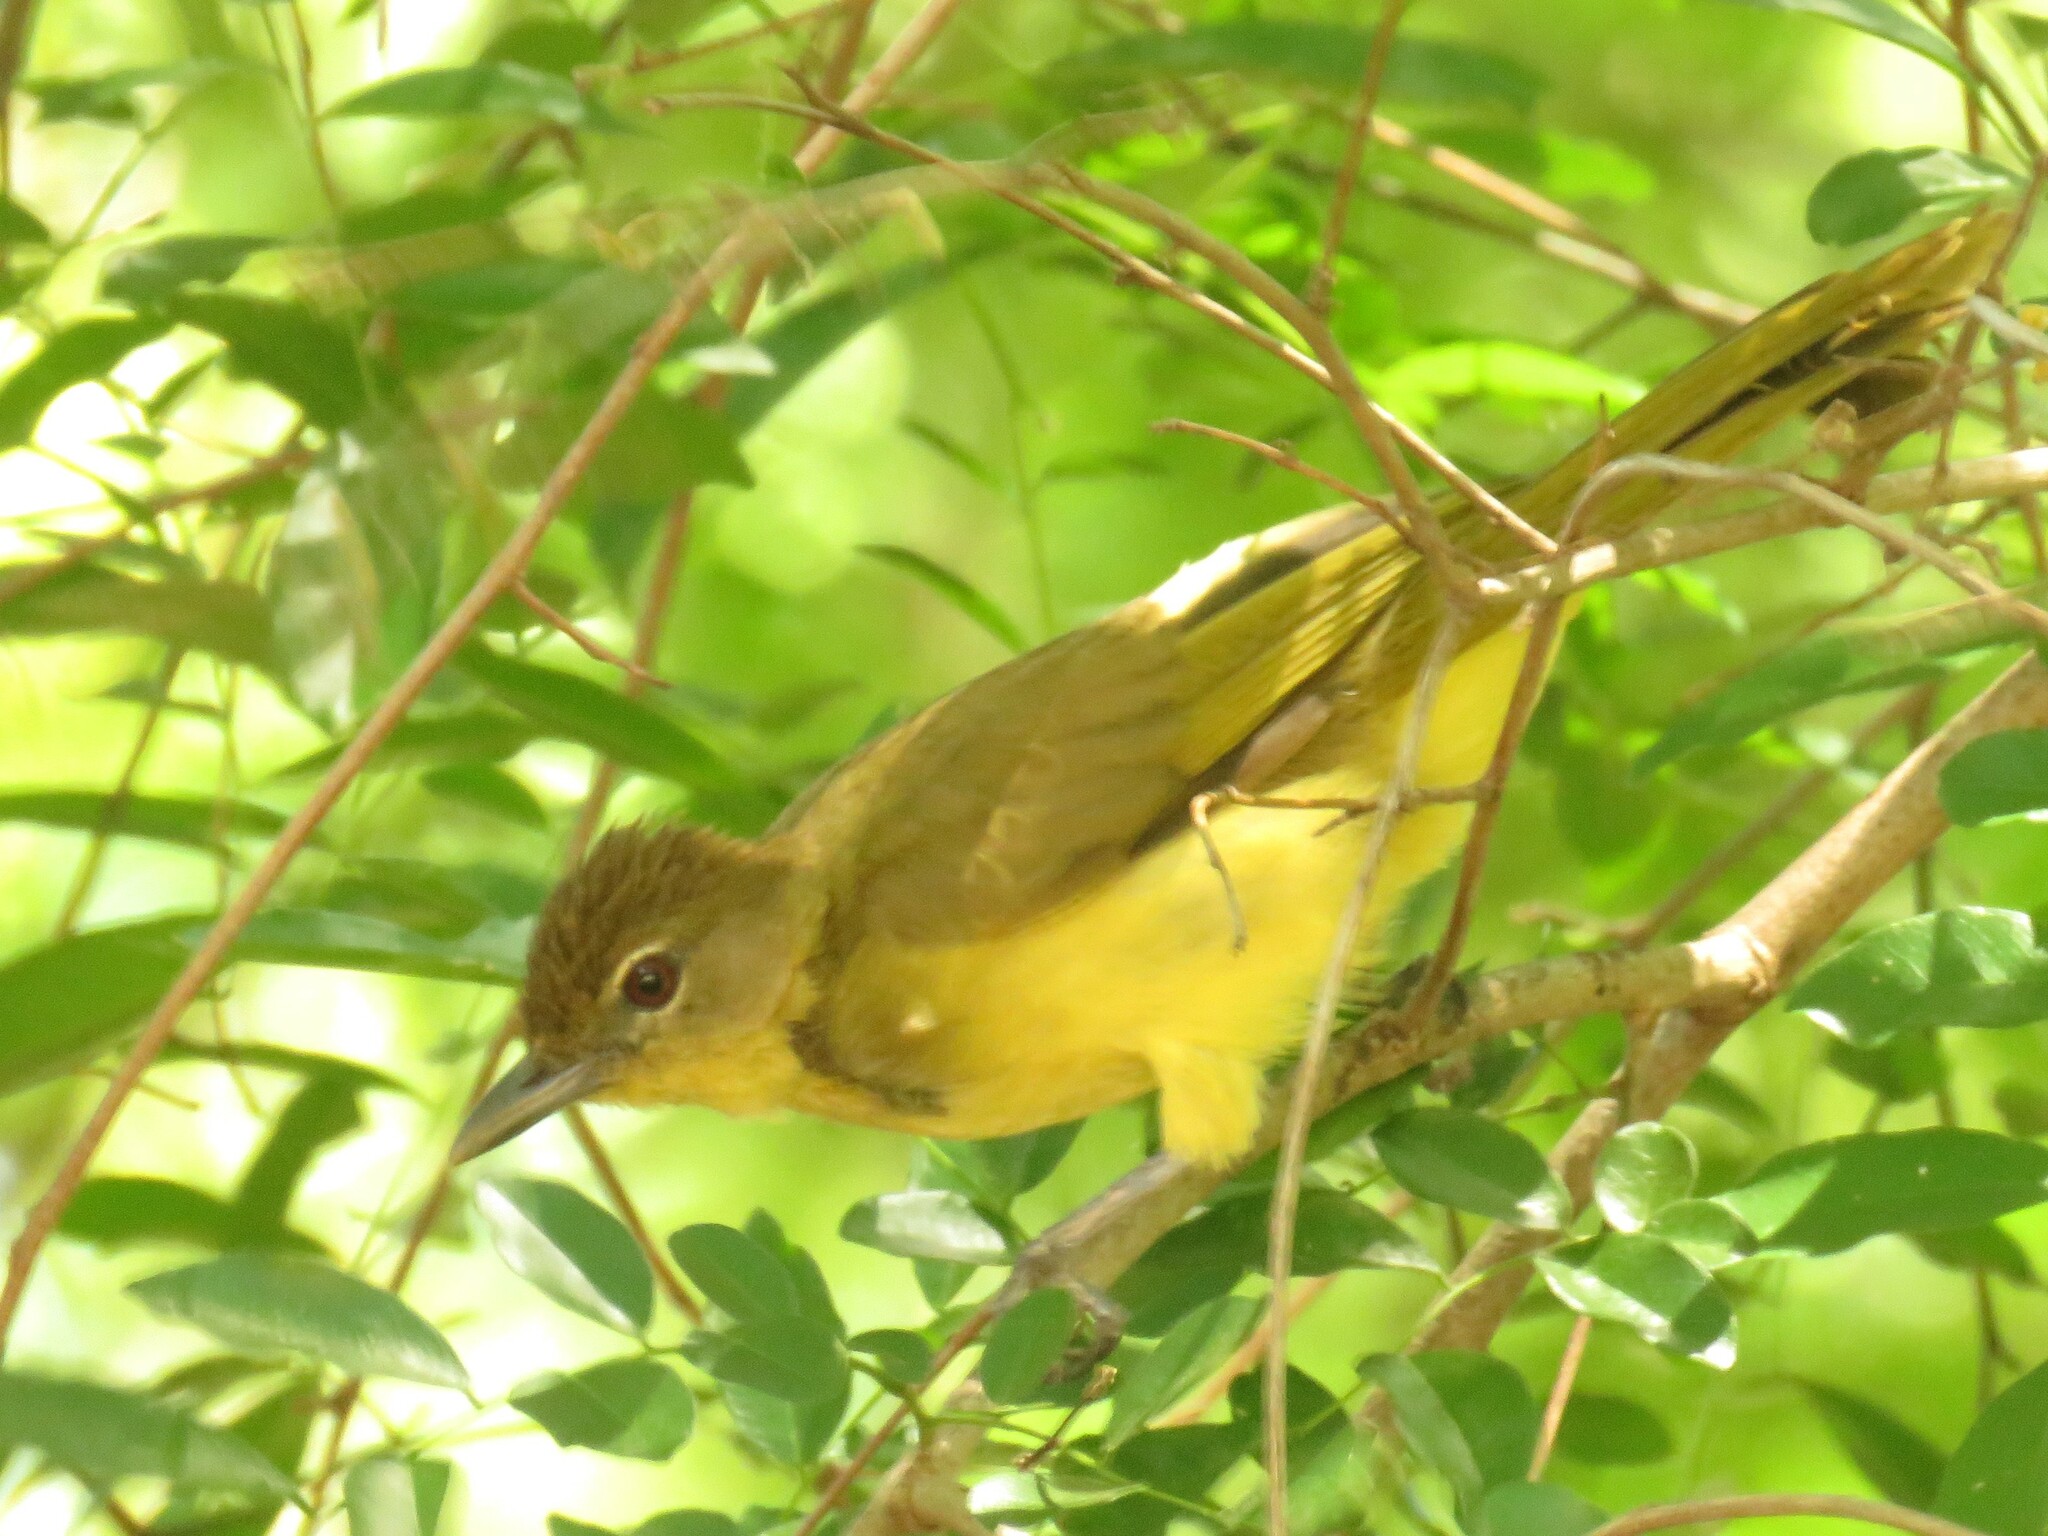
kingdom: Animalia
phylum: Chordata
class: Aves
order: Passeriformes
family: Pycnonotidae
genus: Chlorocichla
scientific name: Chlorocichla flaviventris
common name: Yellow-bellied greenbul
